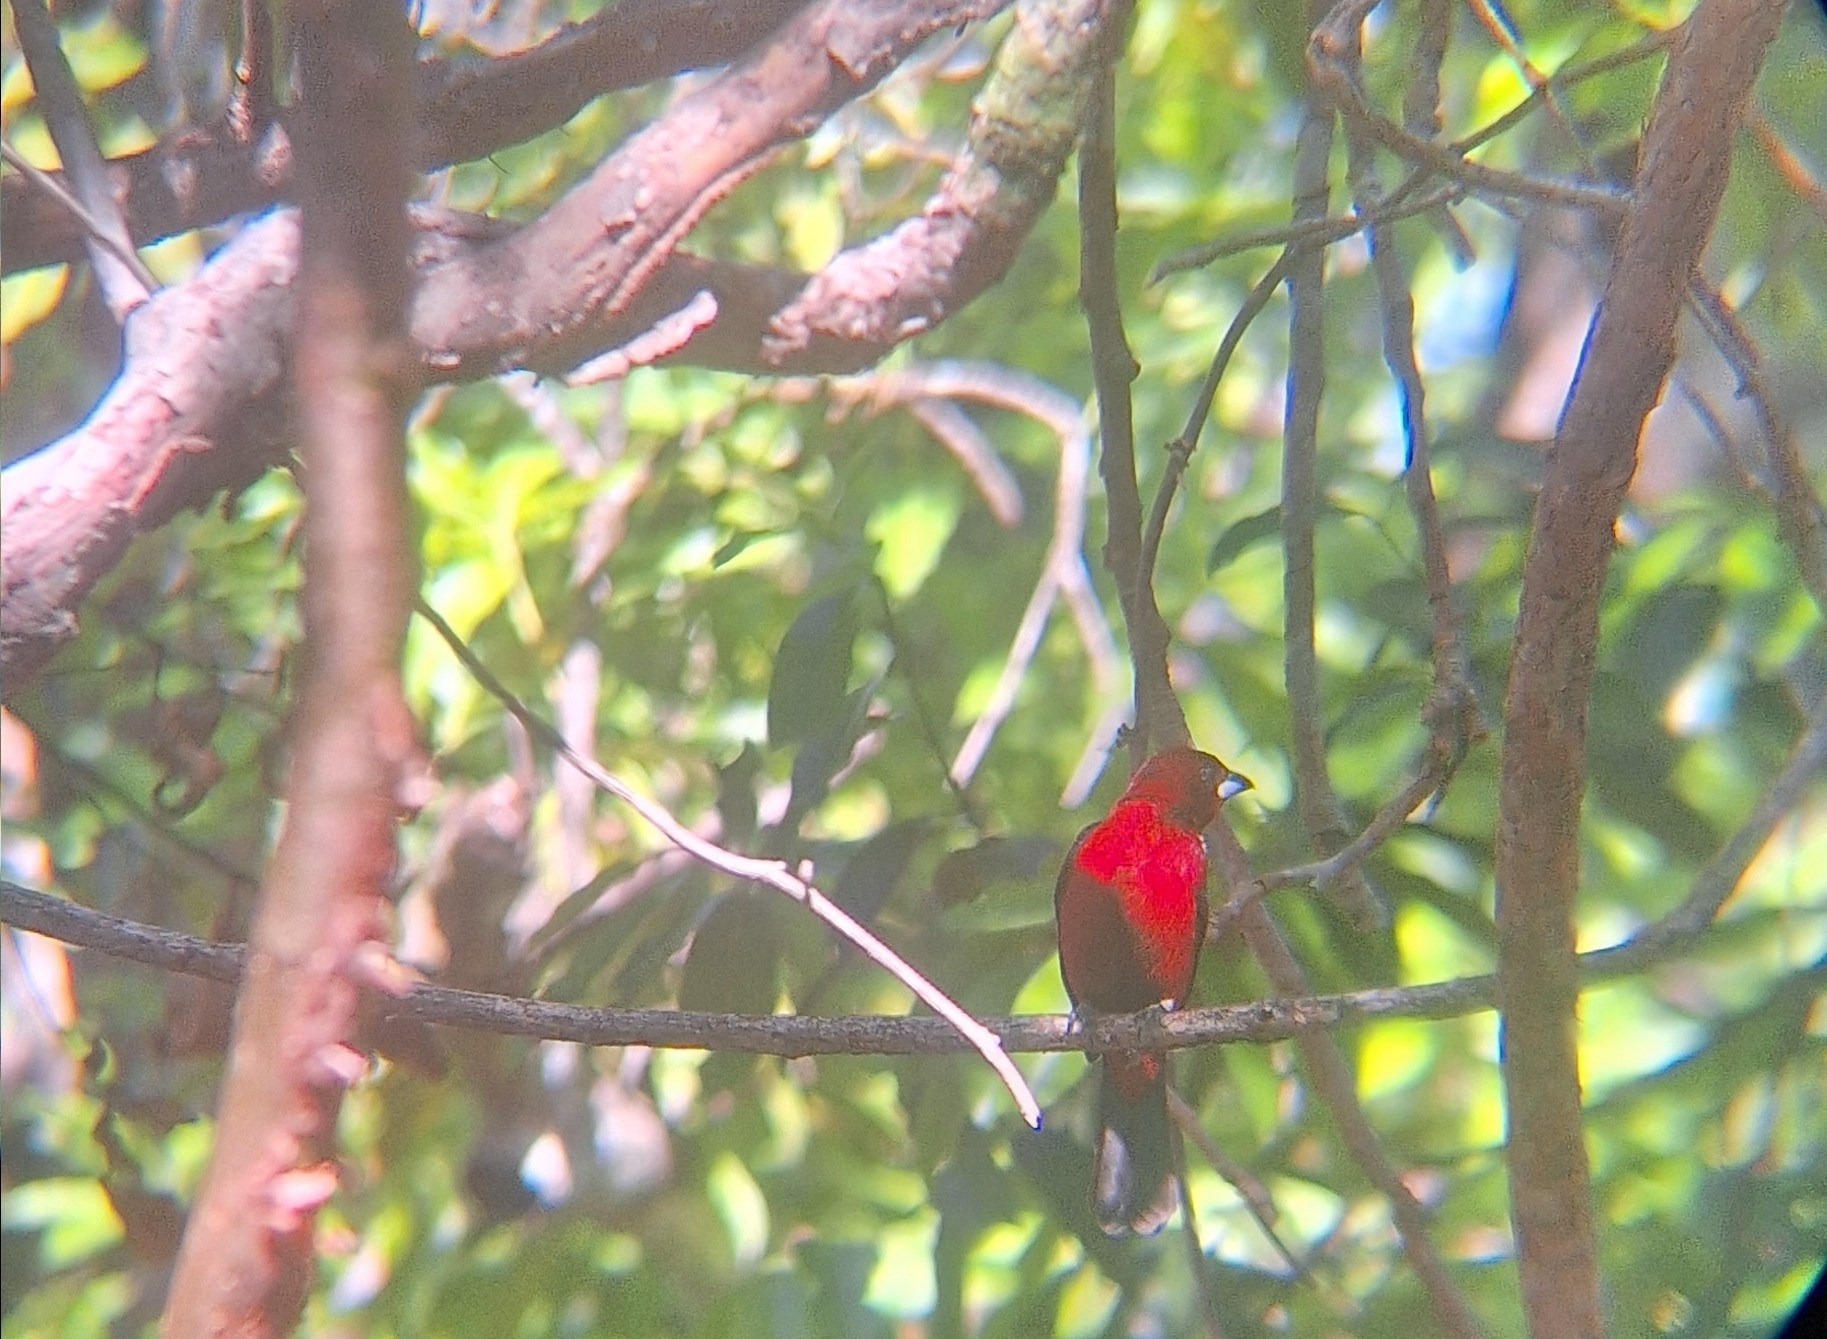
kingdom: Animalia
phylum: Chordata
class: Aves
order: Passeriformes
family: Thraupidae
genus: Ramphocelus
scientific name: Ramphocelus dimidiatus
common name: Crimson-backed tanager
